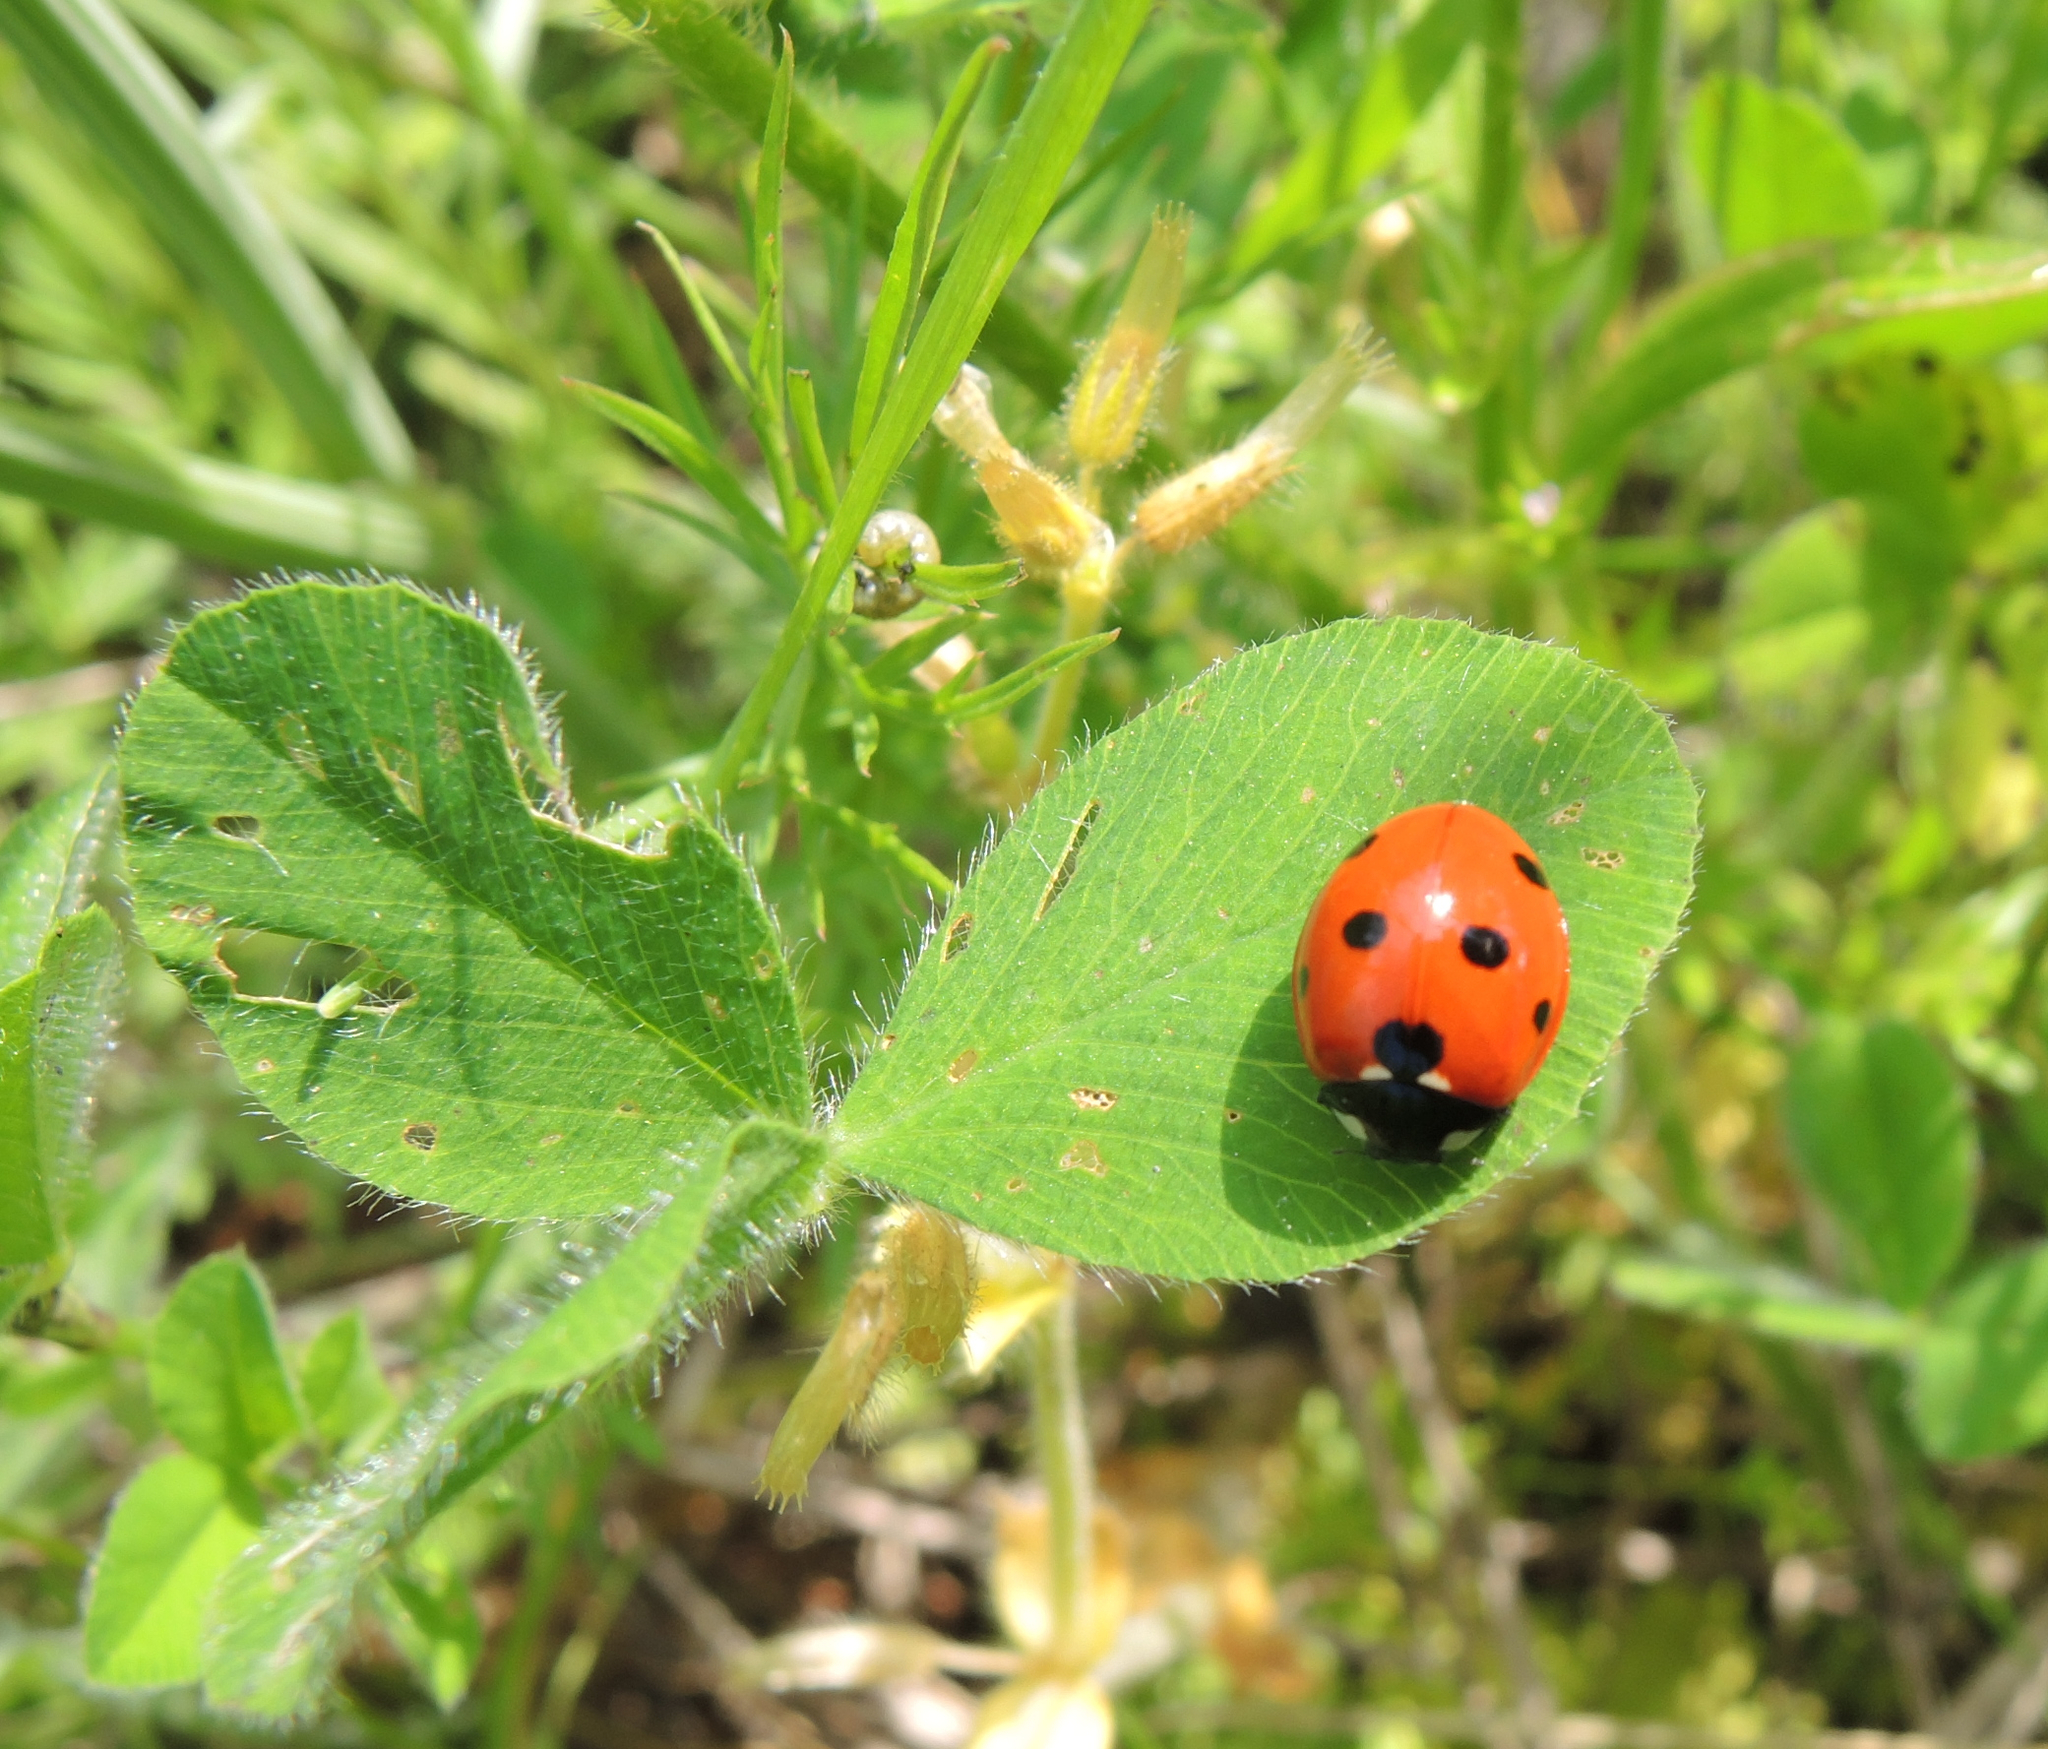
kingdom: Animalia
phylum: Arthropoda
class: Insecta
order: Coleoptera
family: Coccinellidae
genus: Coccinella
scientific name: Coccinella septempunctata
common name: Sevenspotted lady beetle
